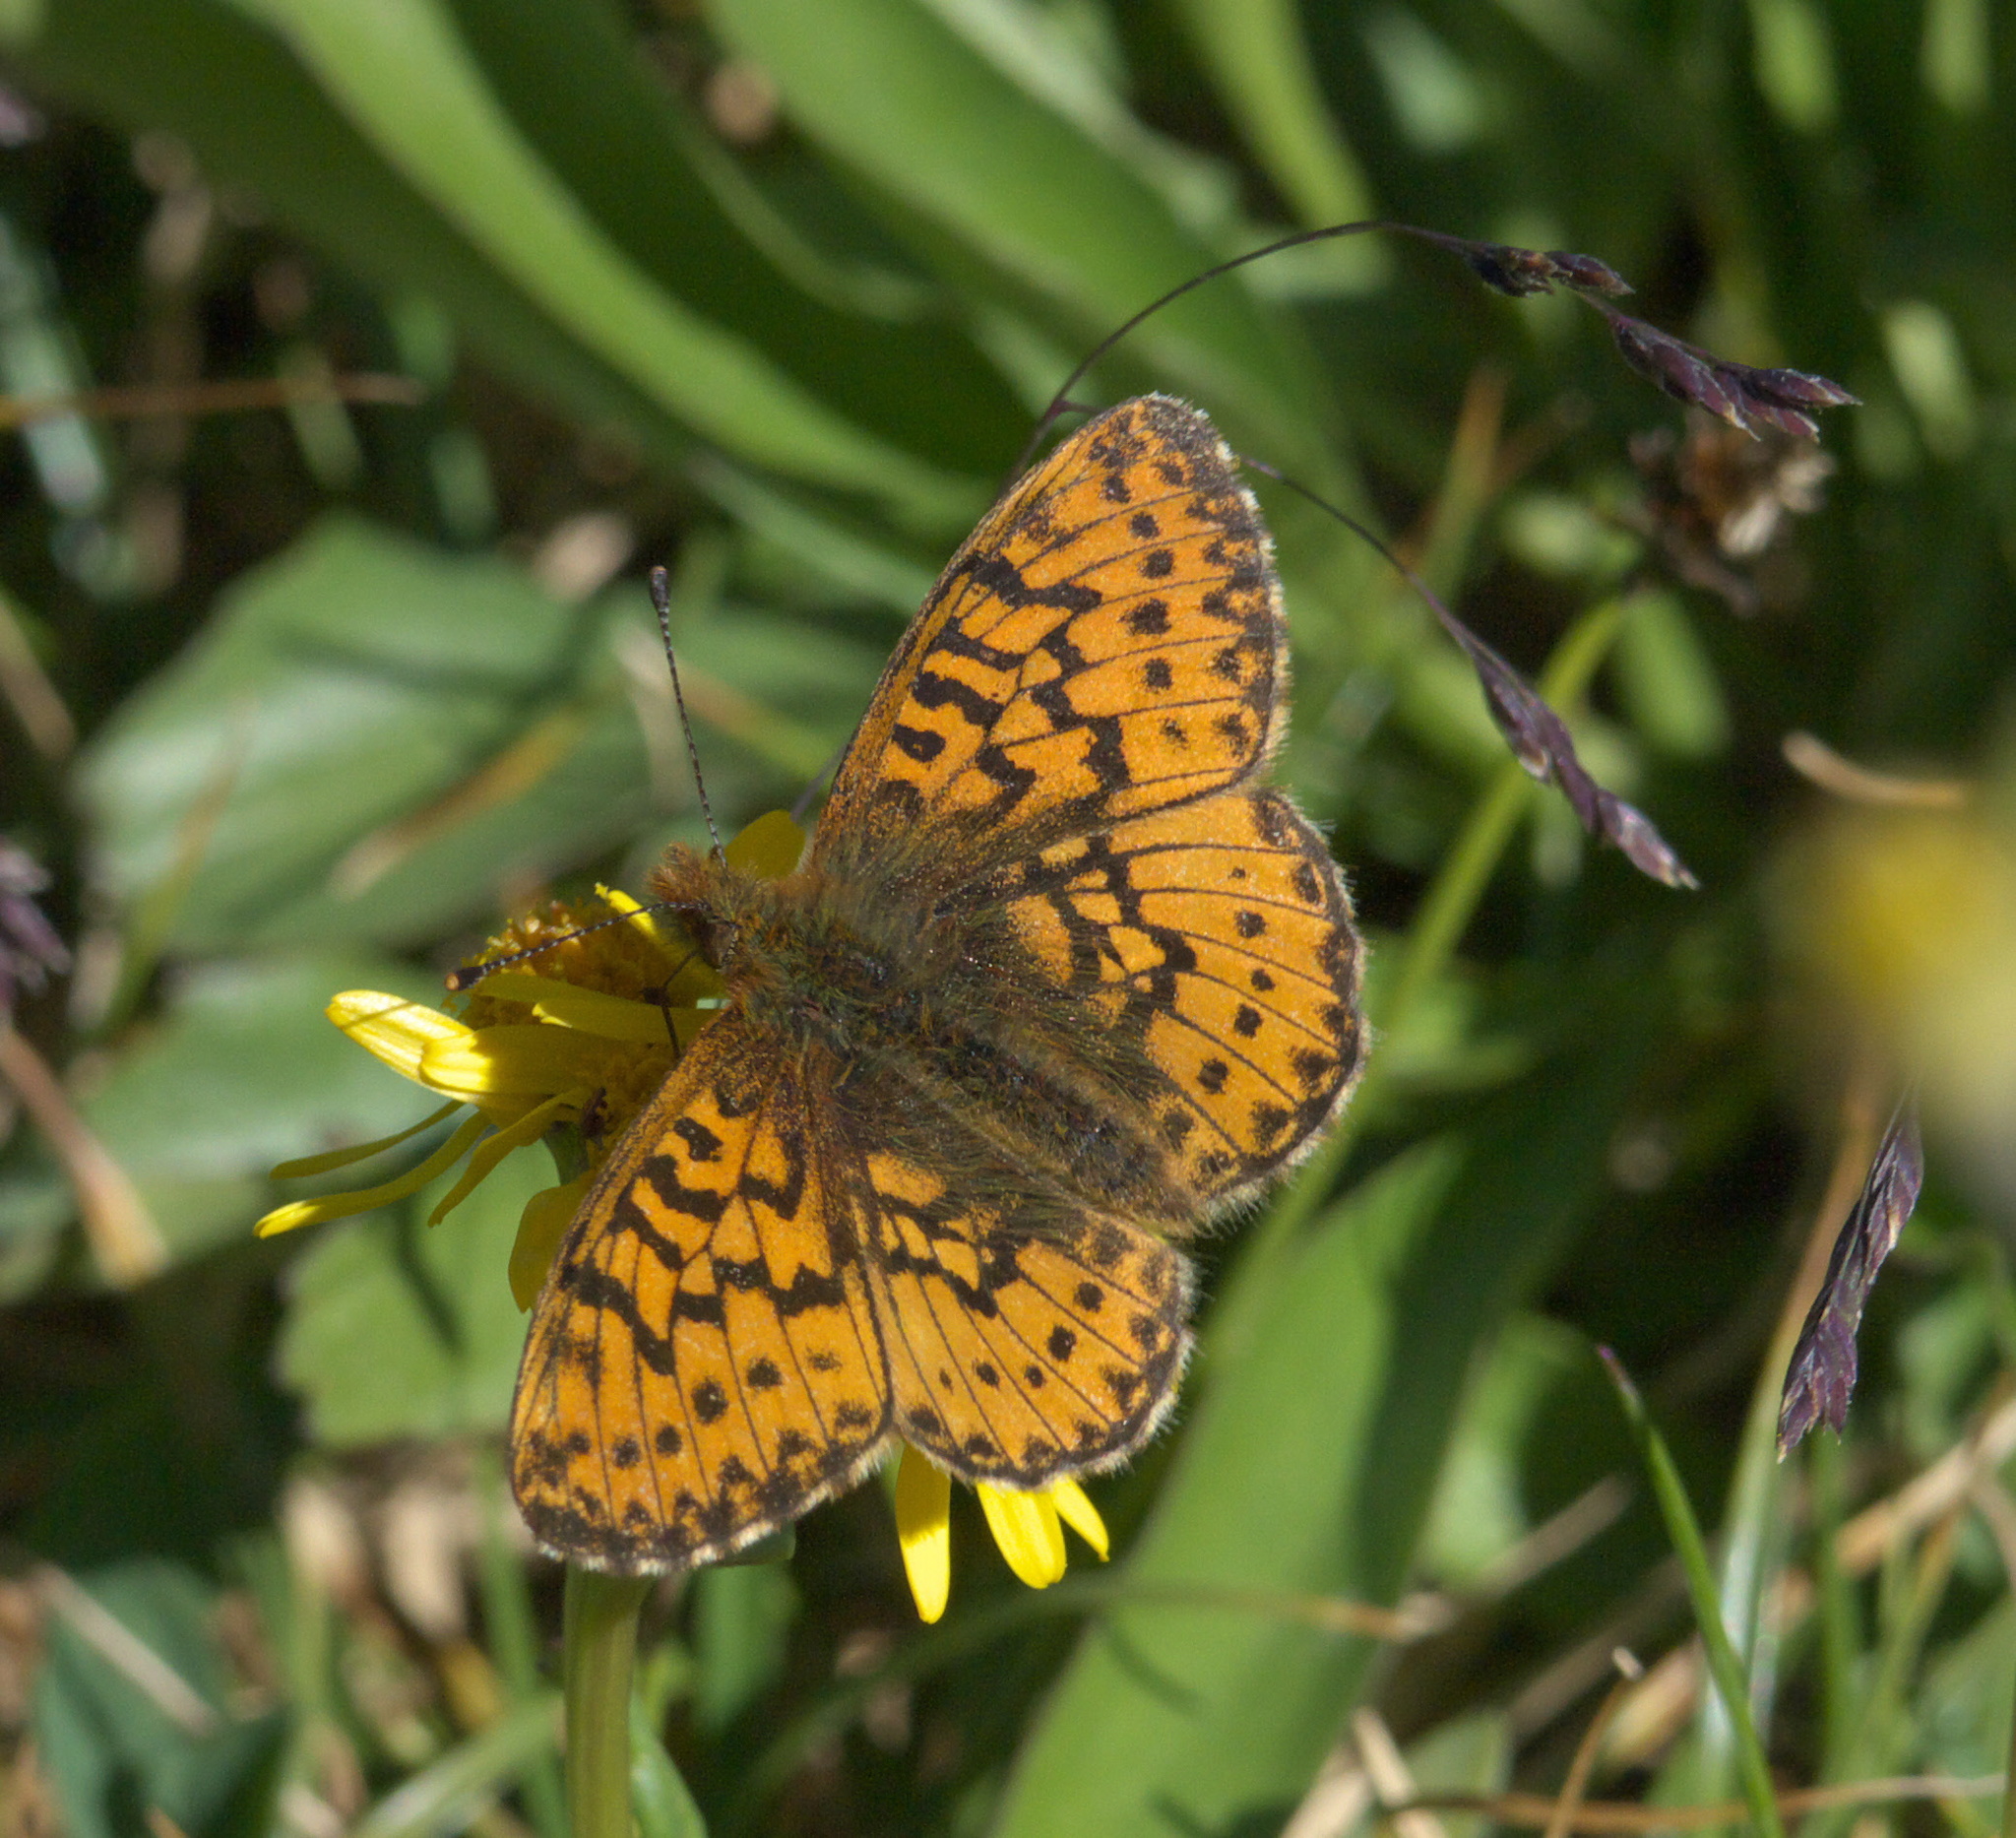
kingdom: Animalia
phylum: Arthropoda
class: Insecta
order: Lepidoptera
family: Nymphalidae
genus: Boloria
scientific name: Boloria chariclea
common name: Arctic fritillary
